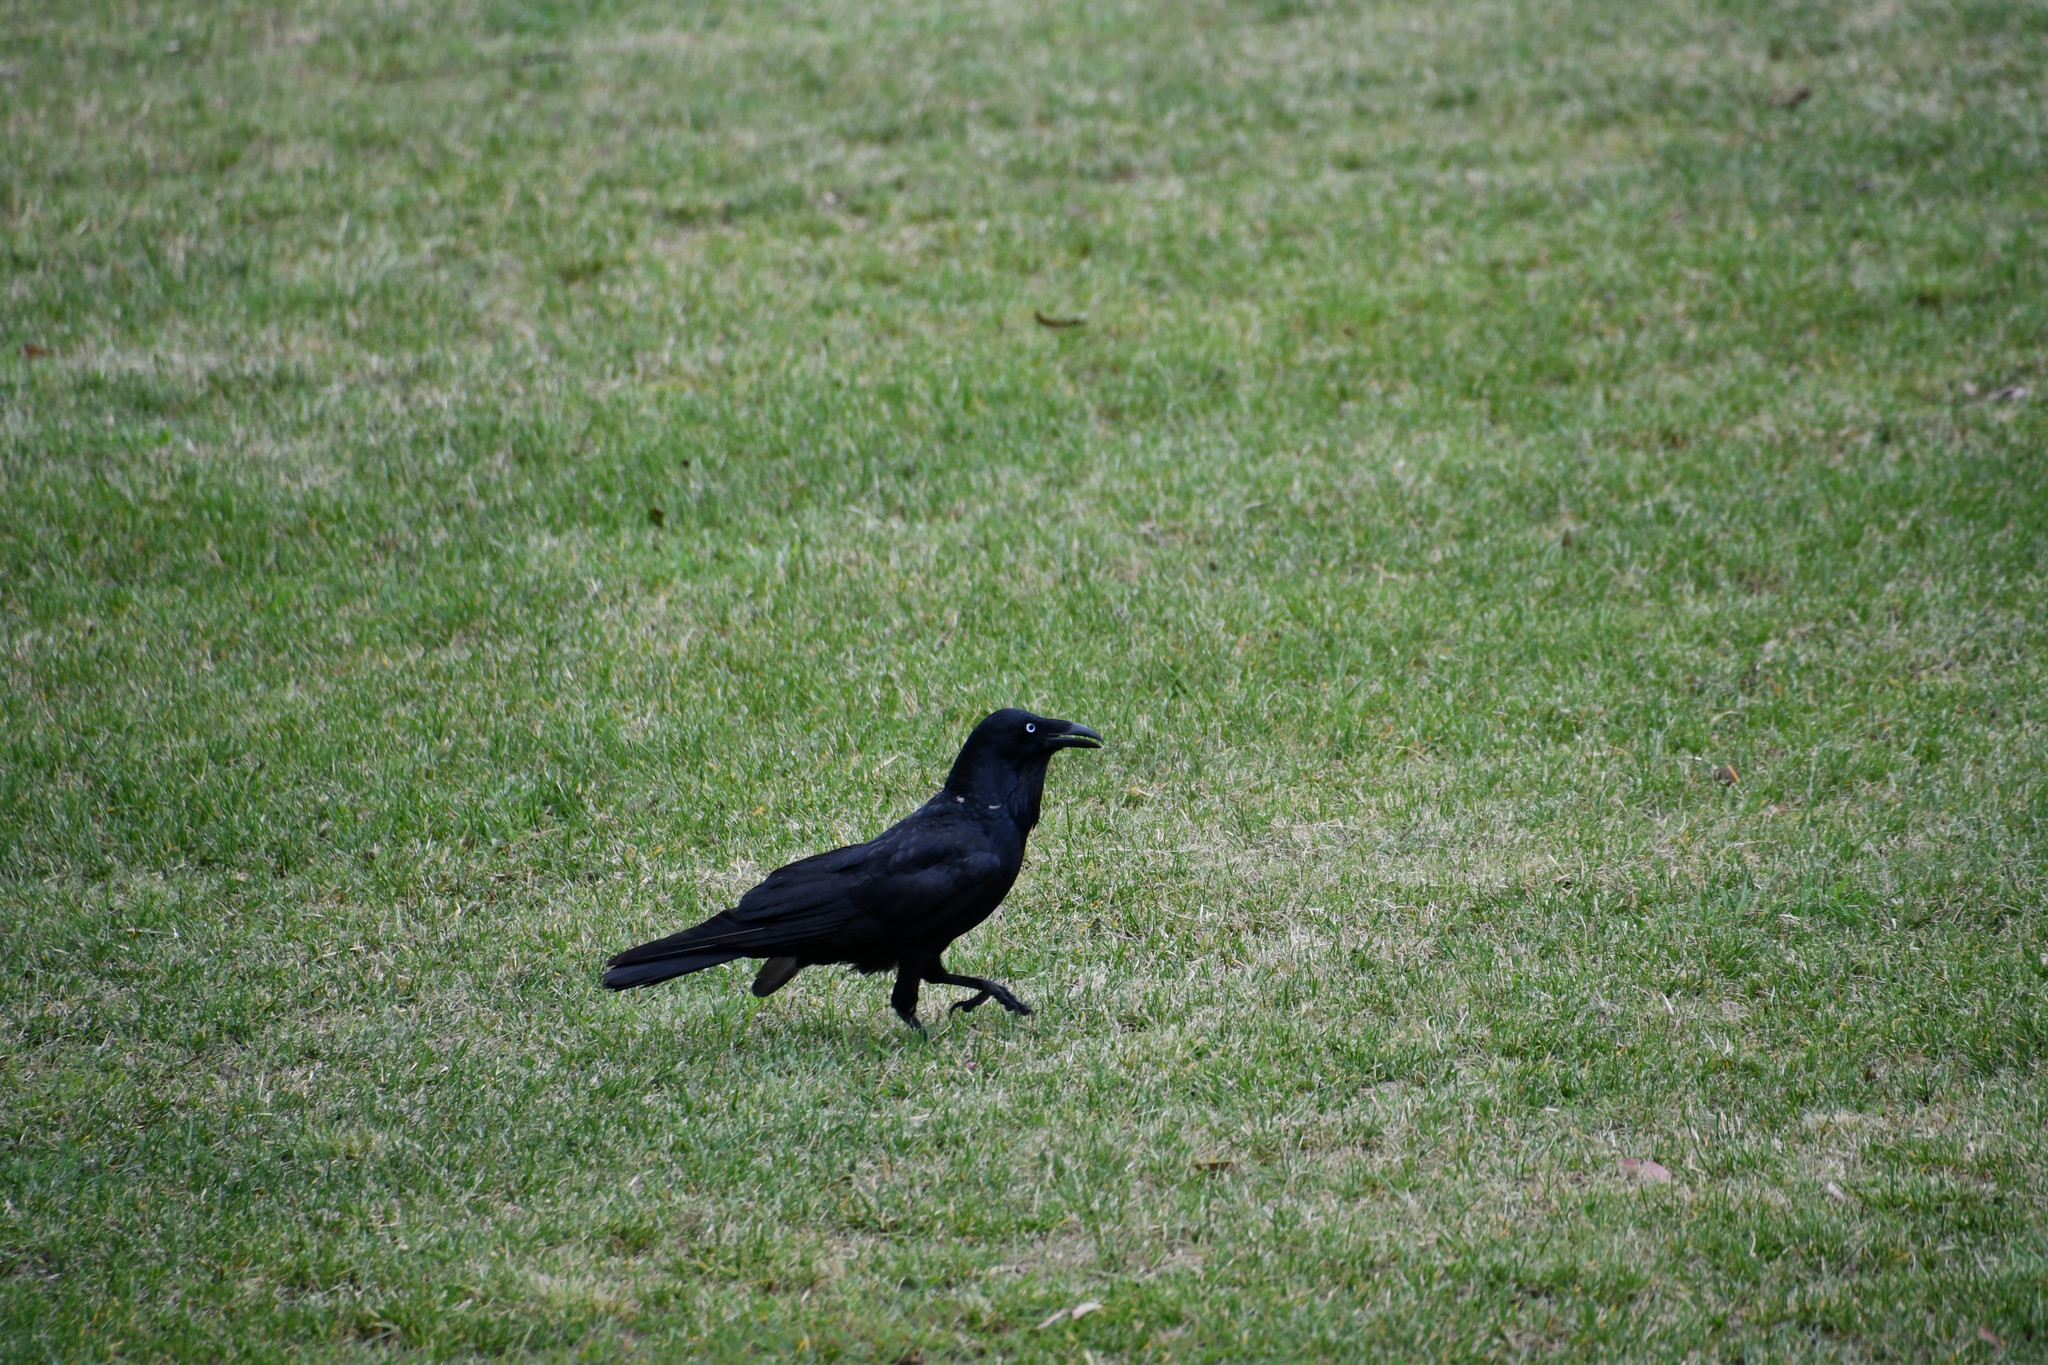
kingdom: Animalia
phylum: Chordata
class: Aves
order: Passeriformes
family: Corvidae
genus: Corvus
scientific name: Corvus coronoides
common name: Australian raven
